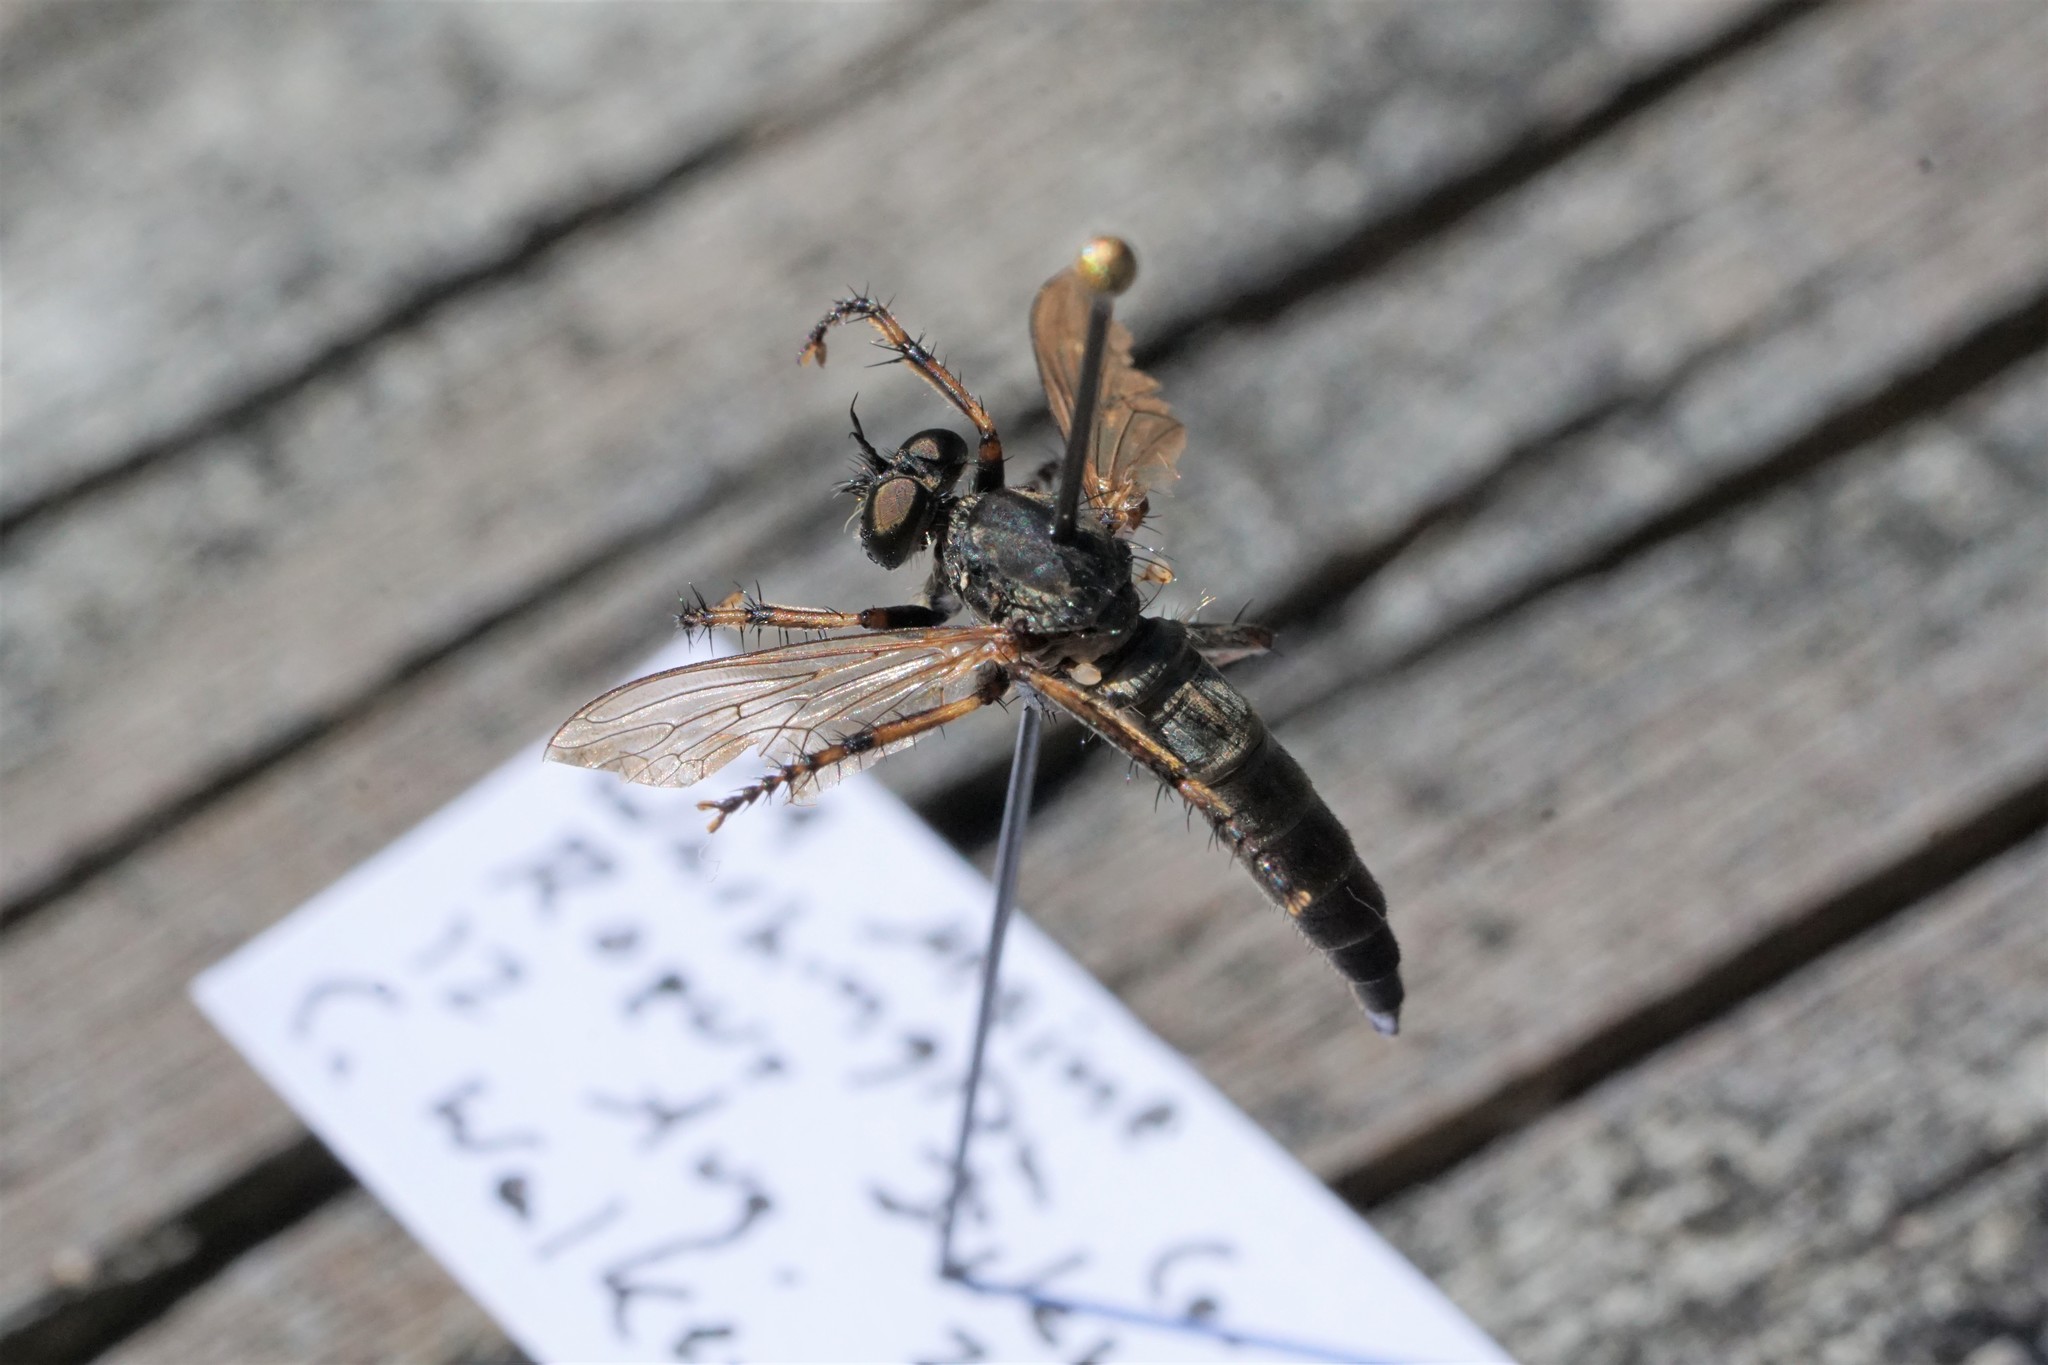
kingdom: Animalia
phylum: Arthropoda
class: Insecta
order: Diptera
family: Asilidae
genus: Machimus
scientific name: Machimus paropus
